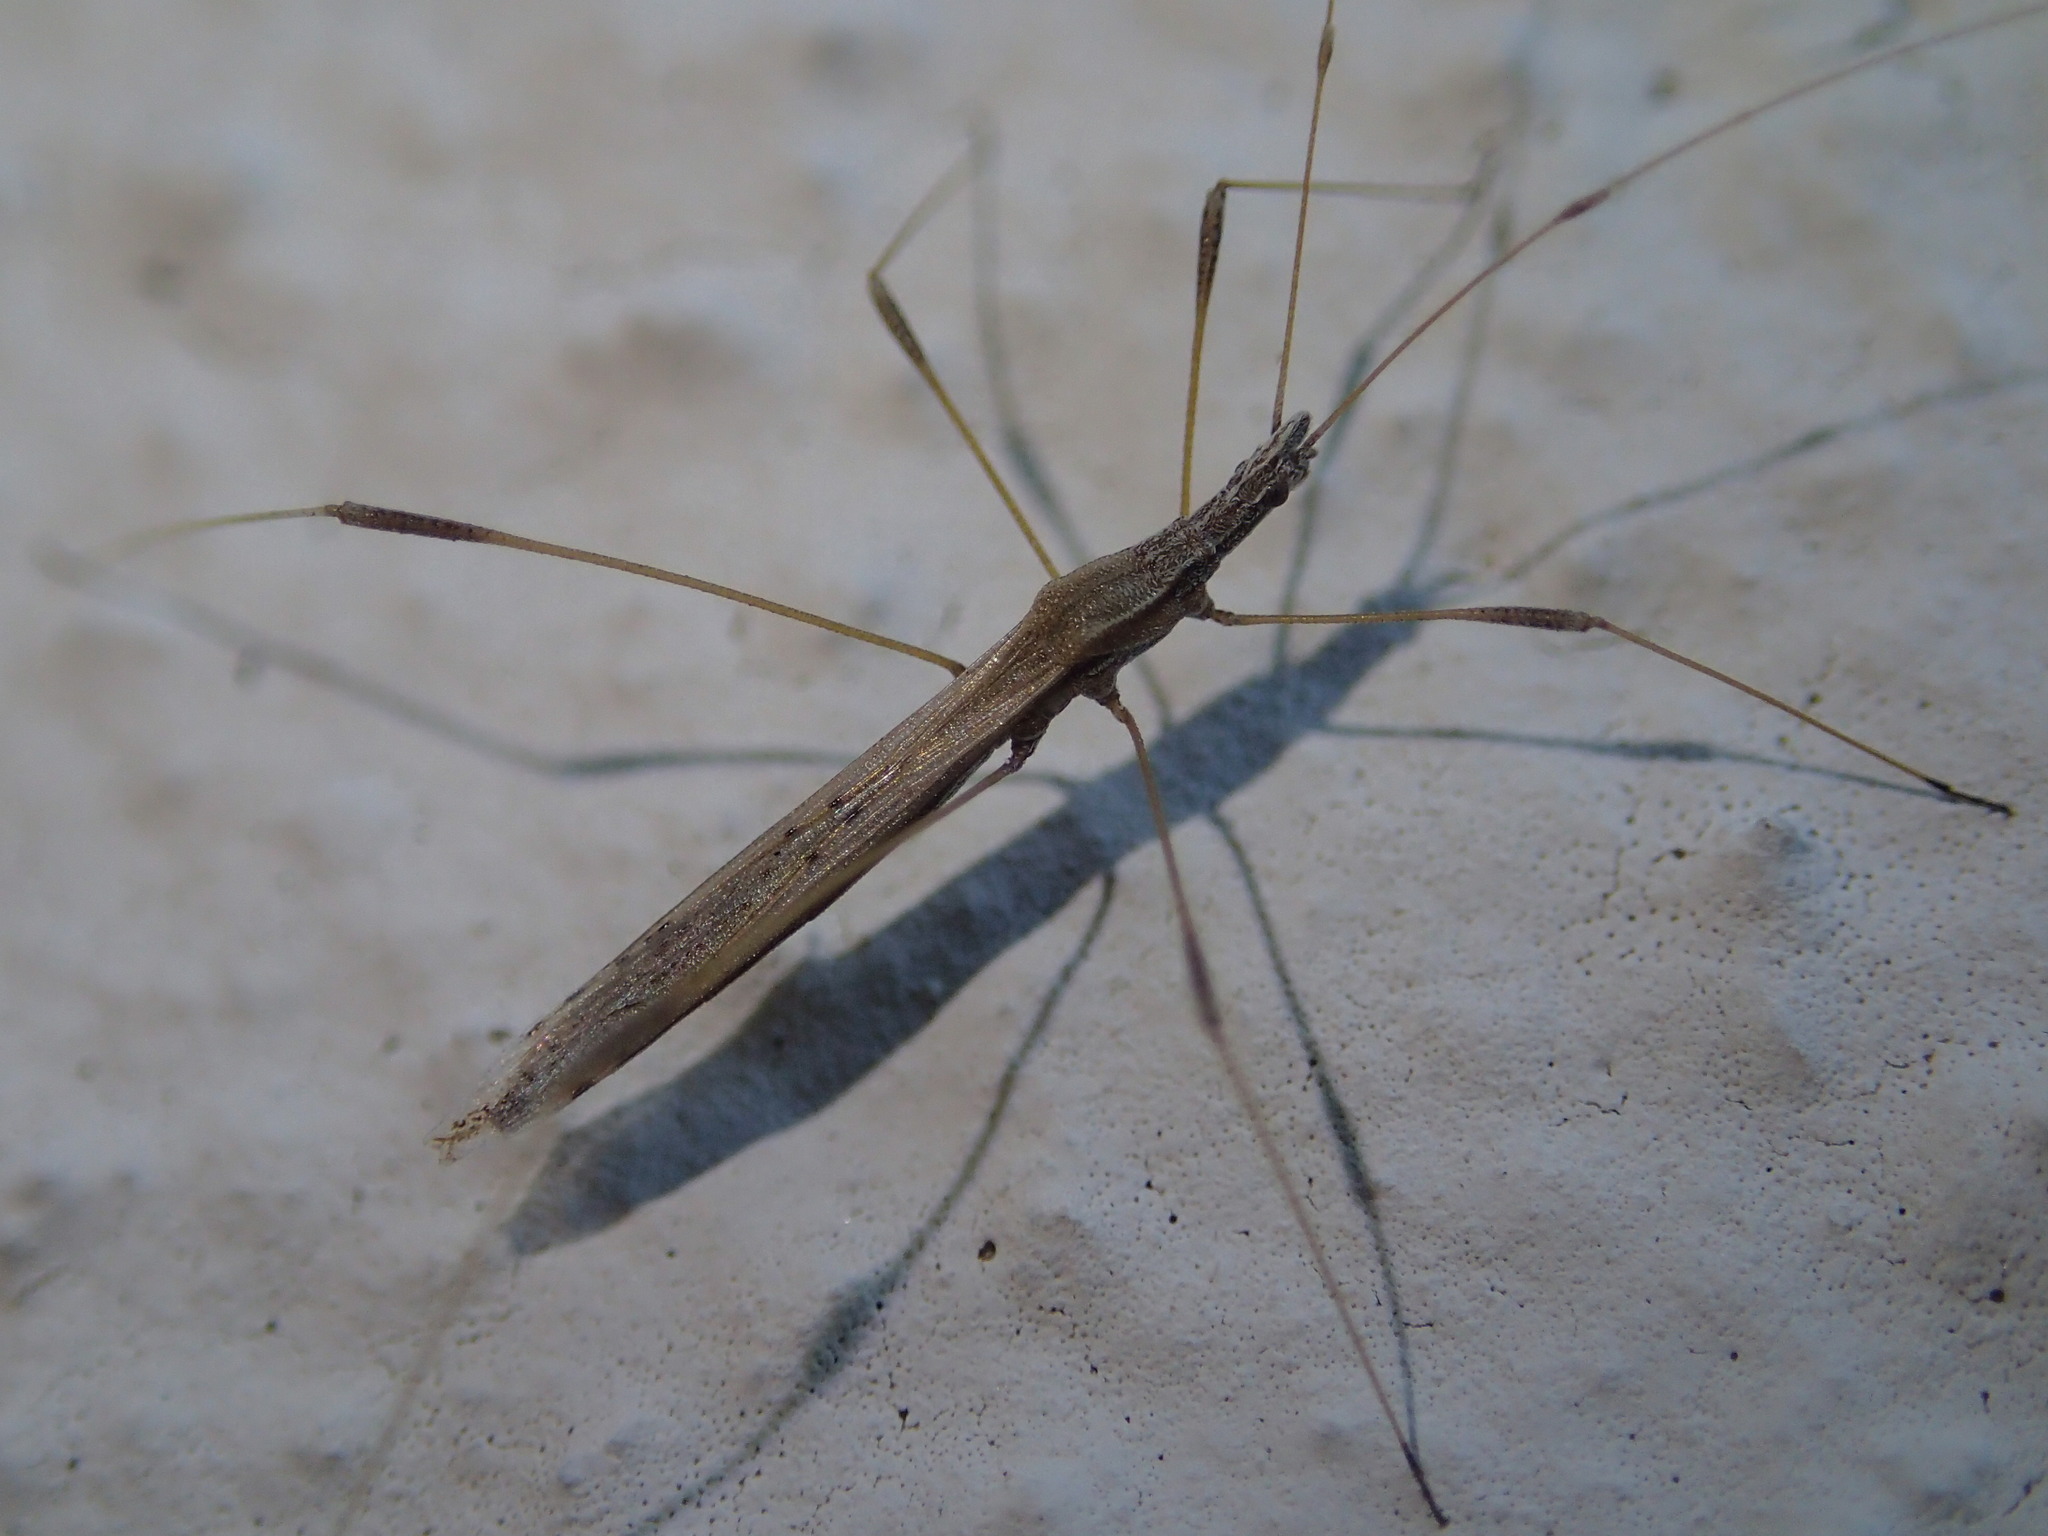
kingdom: Animalia
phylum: Arthropoda
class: Insecta
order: Hemiptera
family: Berytidae
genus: Neides
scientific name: Neides tipularius
